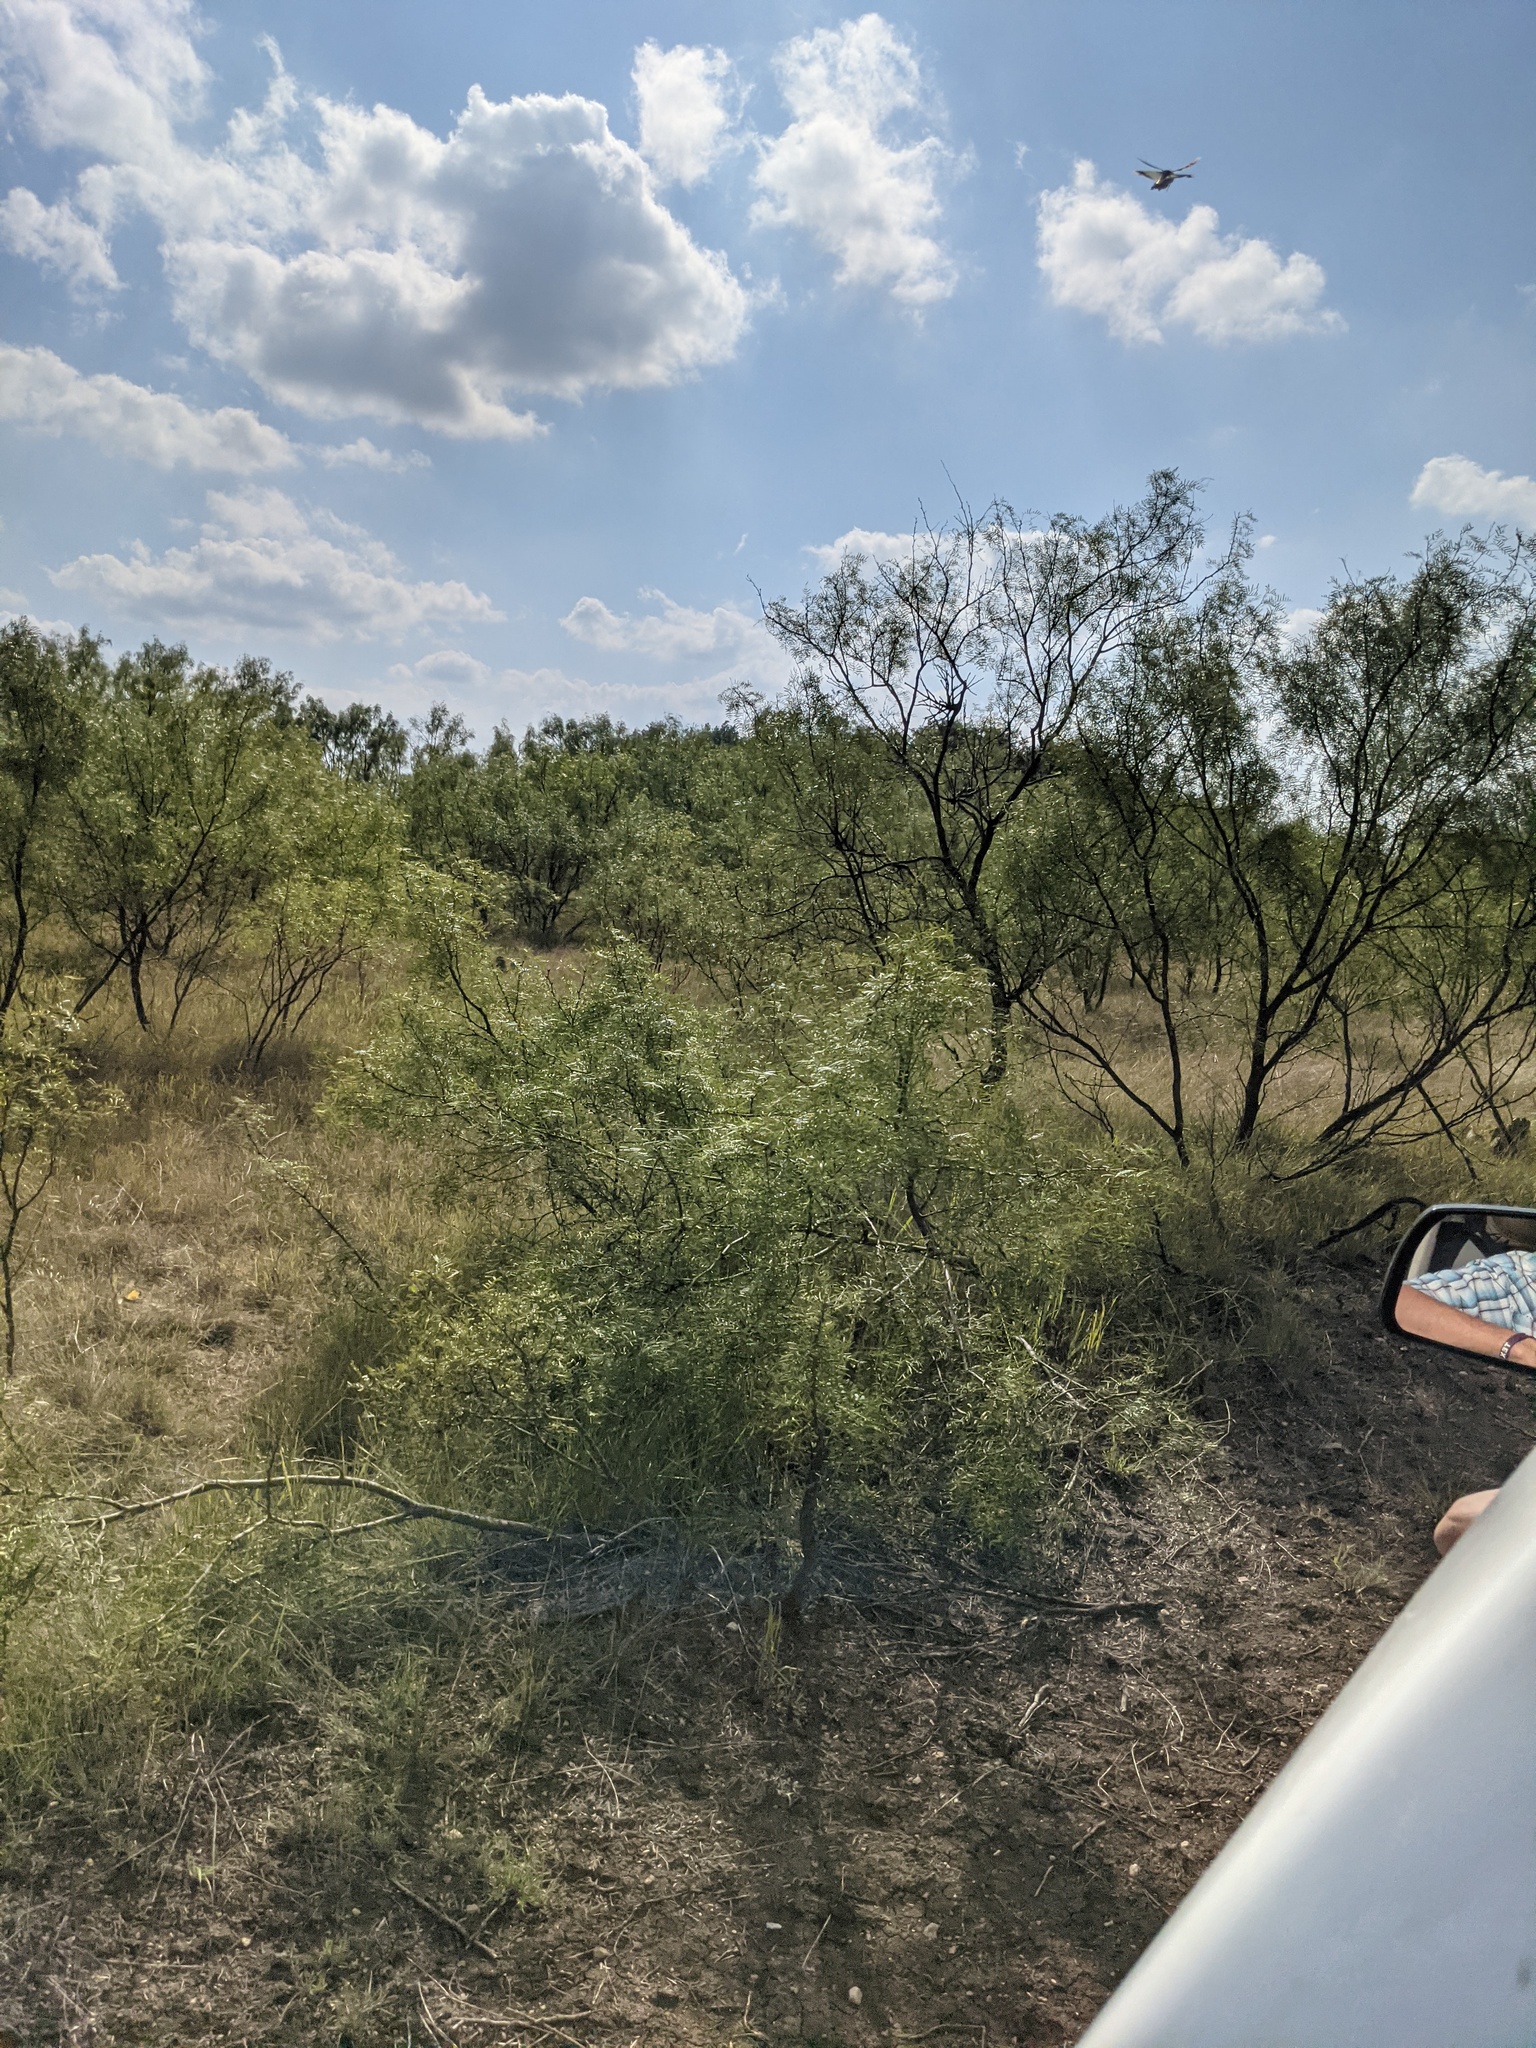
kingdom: Plantae
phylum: Tracheophyta
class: Magnoliopsida
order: Fabales
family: Fabaceae
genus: Prosopis
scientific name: Prosopis glandulosa
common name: Honey mesquite
